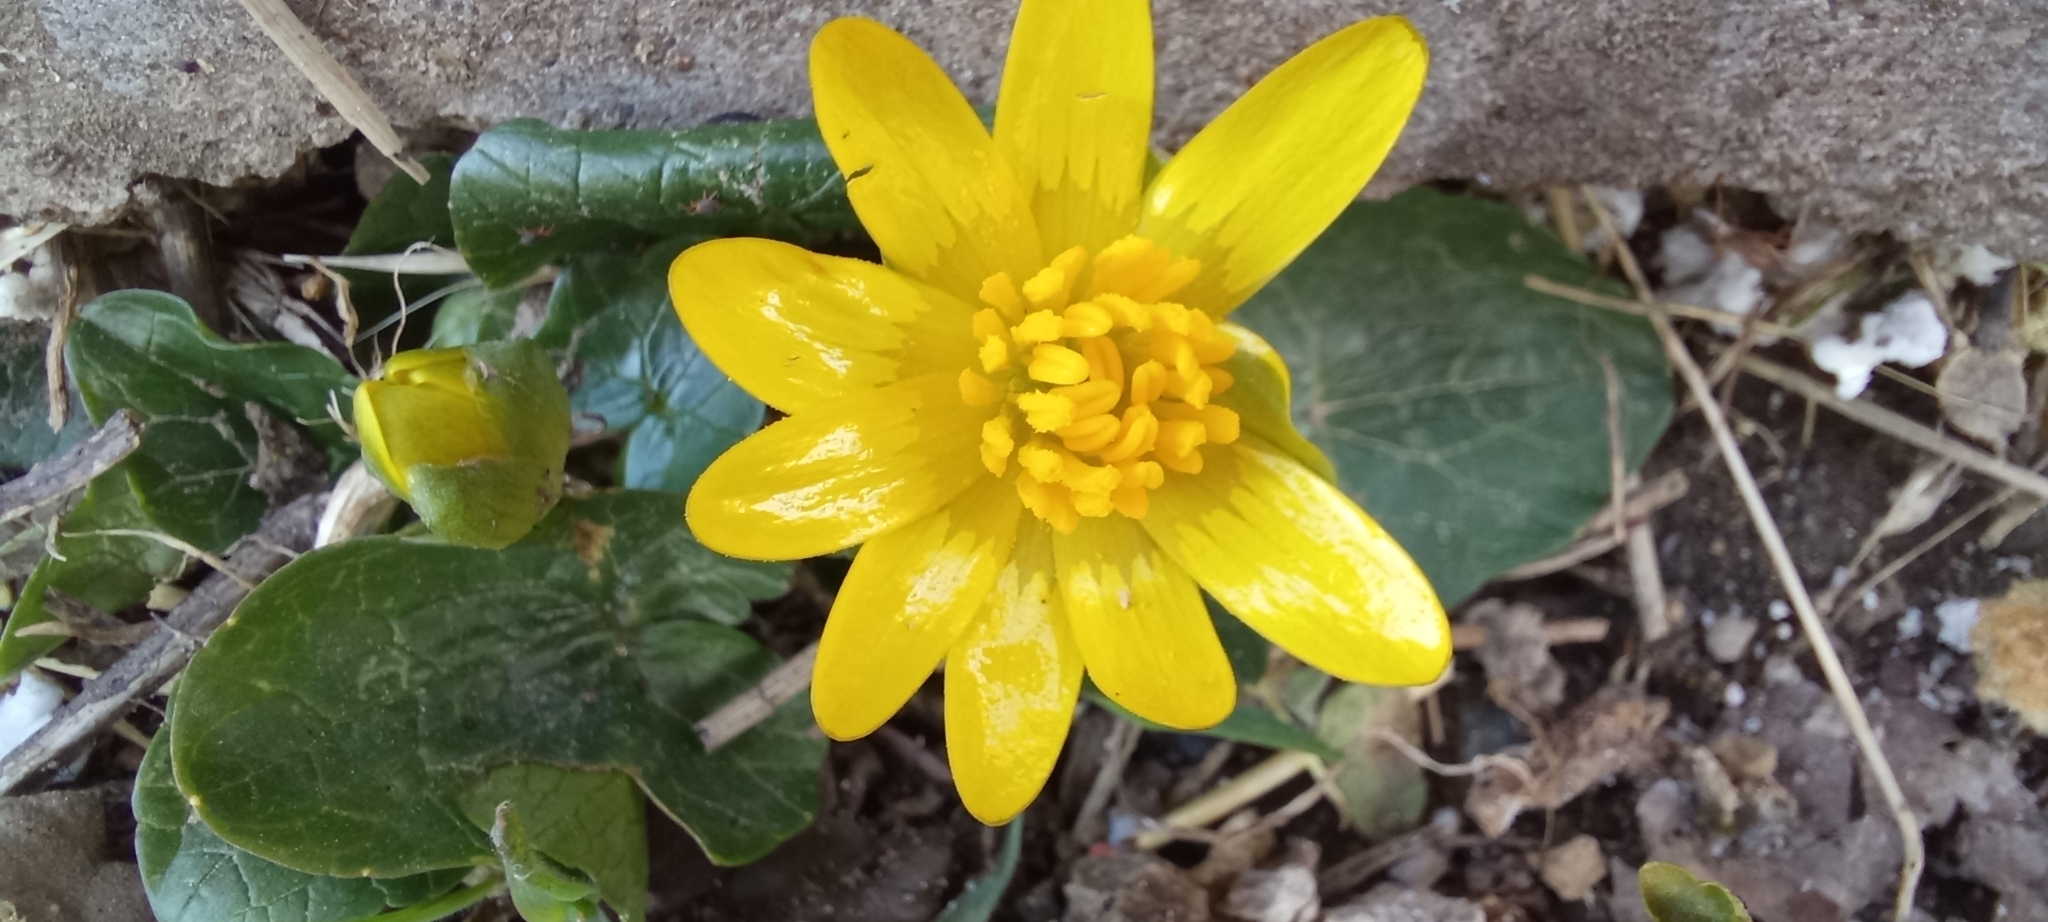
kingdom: Plantae
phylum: Tracheophyta
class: Magnoliopsida
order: Ranunculales
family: Ranunculaceae
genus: Ficaria
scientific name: Ficaria verna
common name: Lesser celandine
